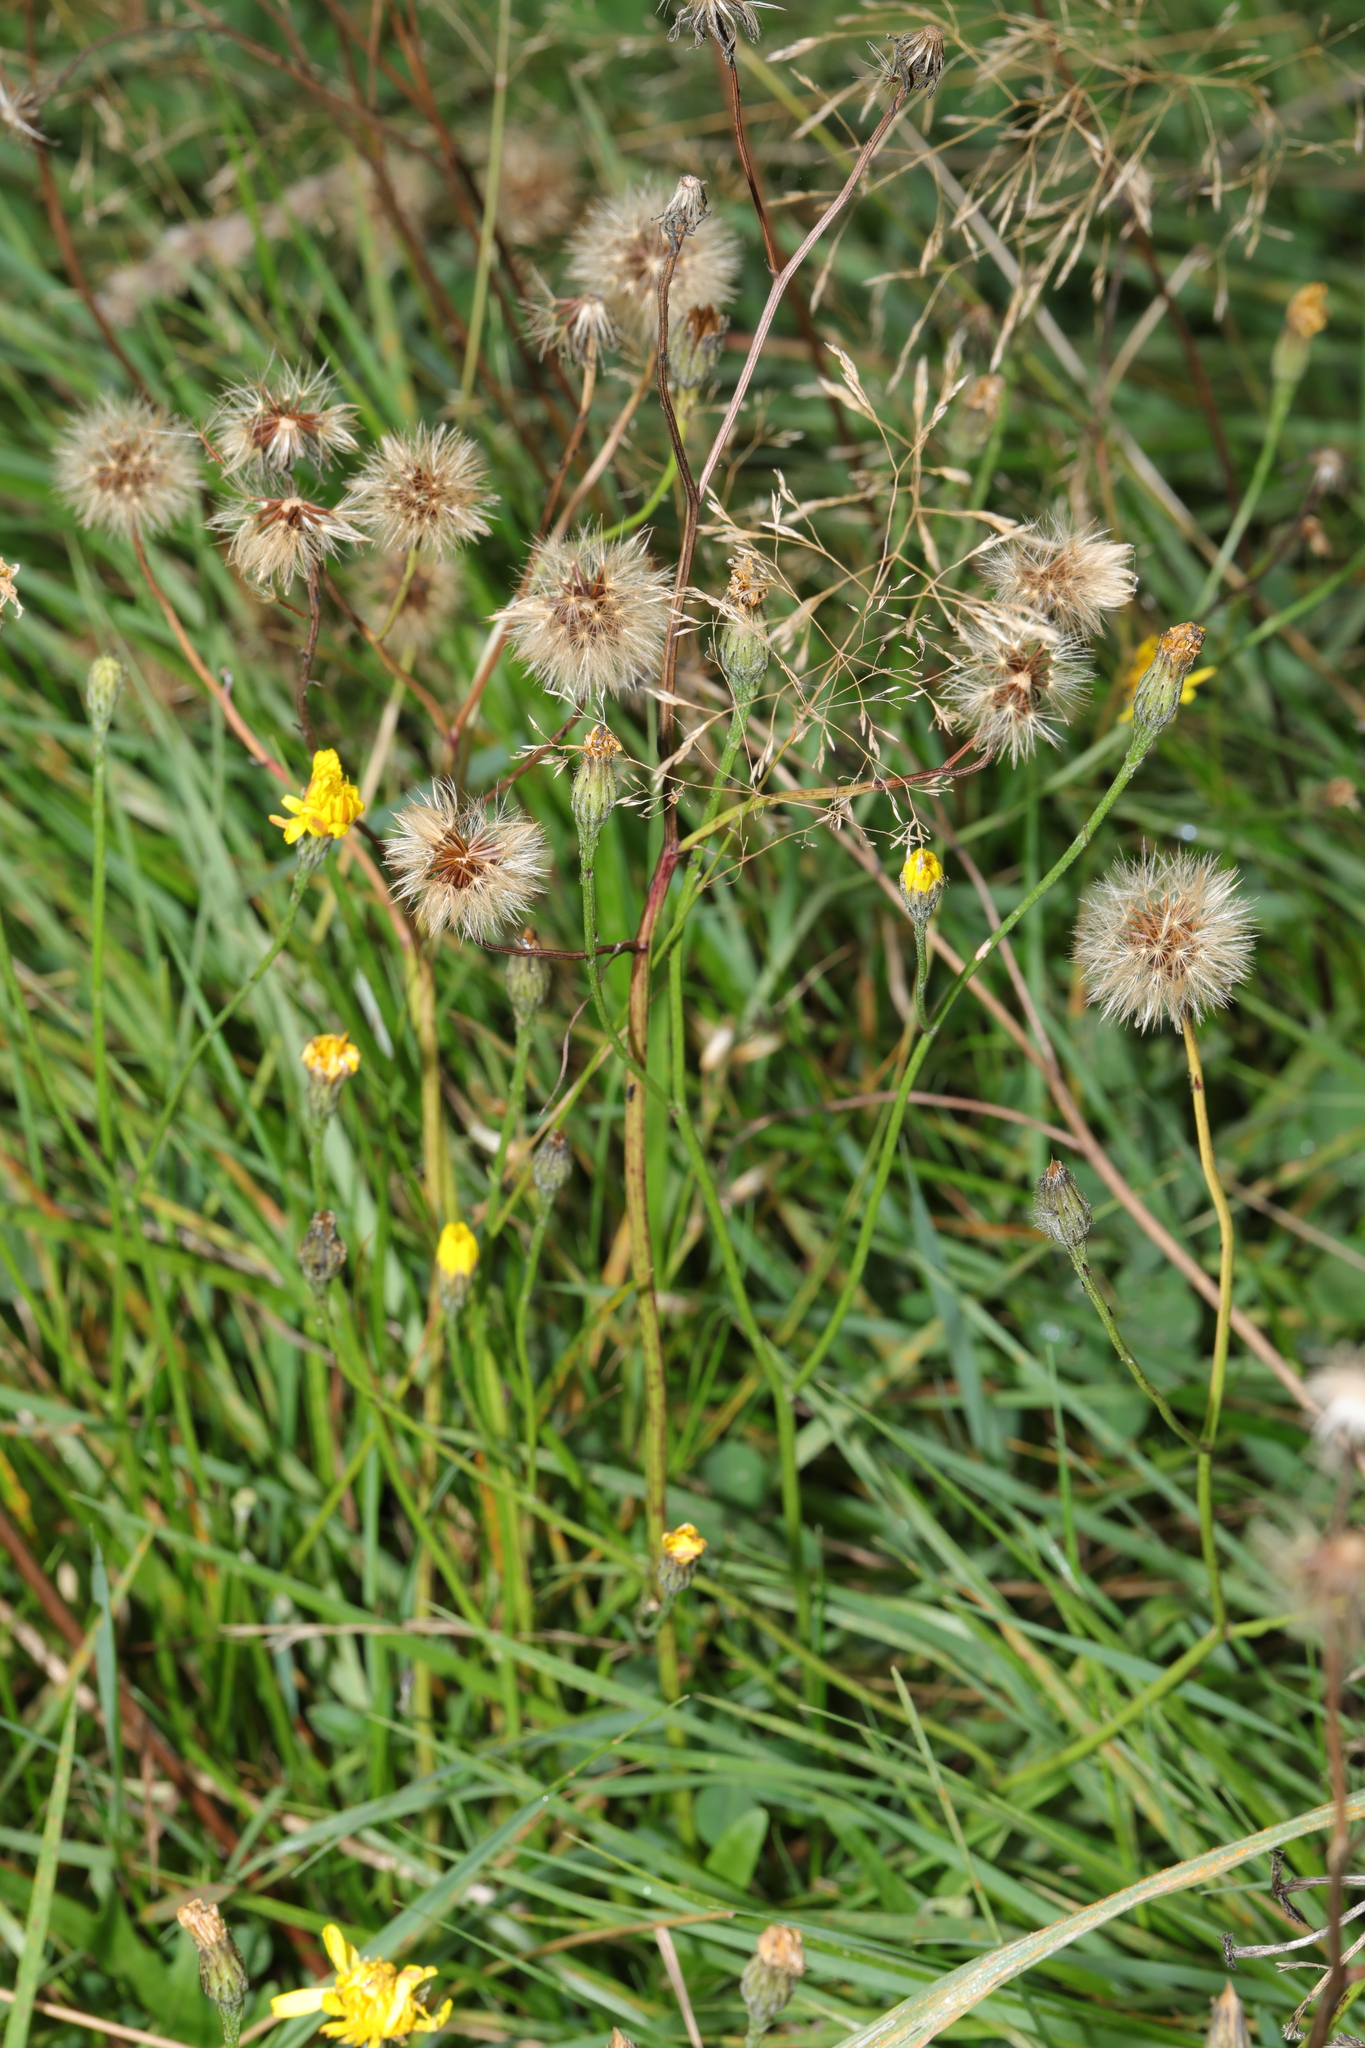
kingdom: Plantae
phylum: Tracheophyta
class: Magnoliopsida
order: Asterales
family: Asteraceae
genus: Scorzoneroides
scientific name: Scorzoneroides autumnalis
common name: Autumn hawkbit
